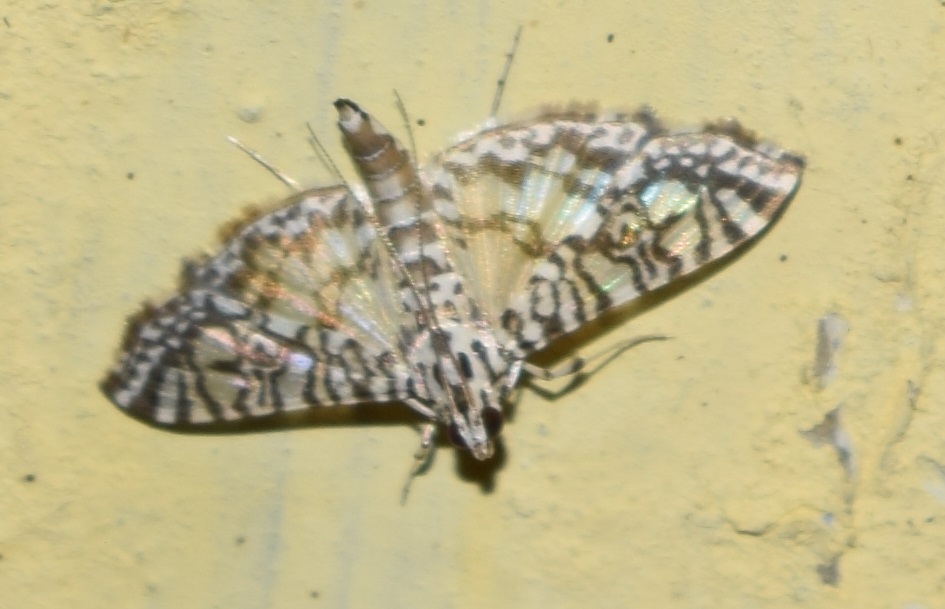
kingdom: Animalia
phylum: Arthropoda
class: Insecta
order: Lepidoptera
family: Crambidae
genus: Glyphodes
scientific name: Glyphodes onychinalis
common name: Swan plant moth
